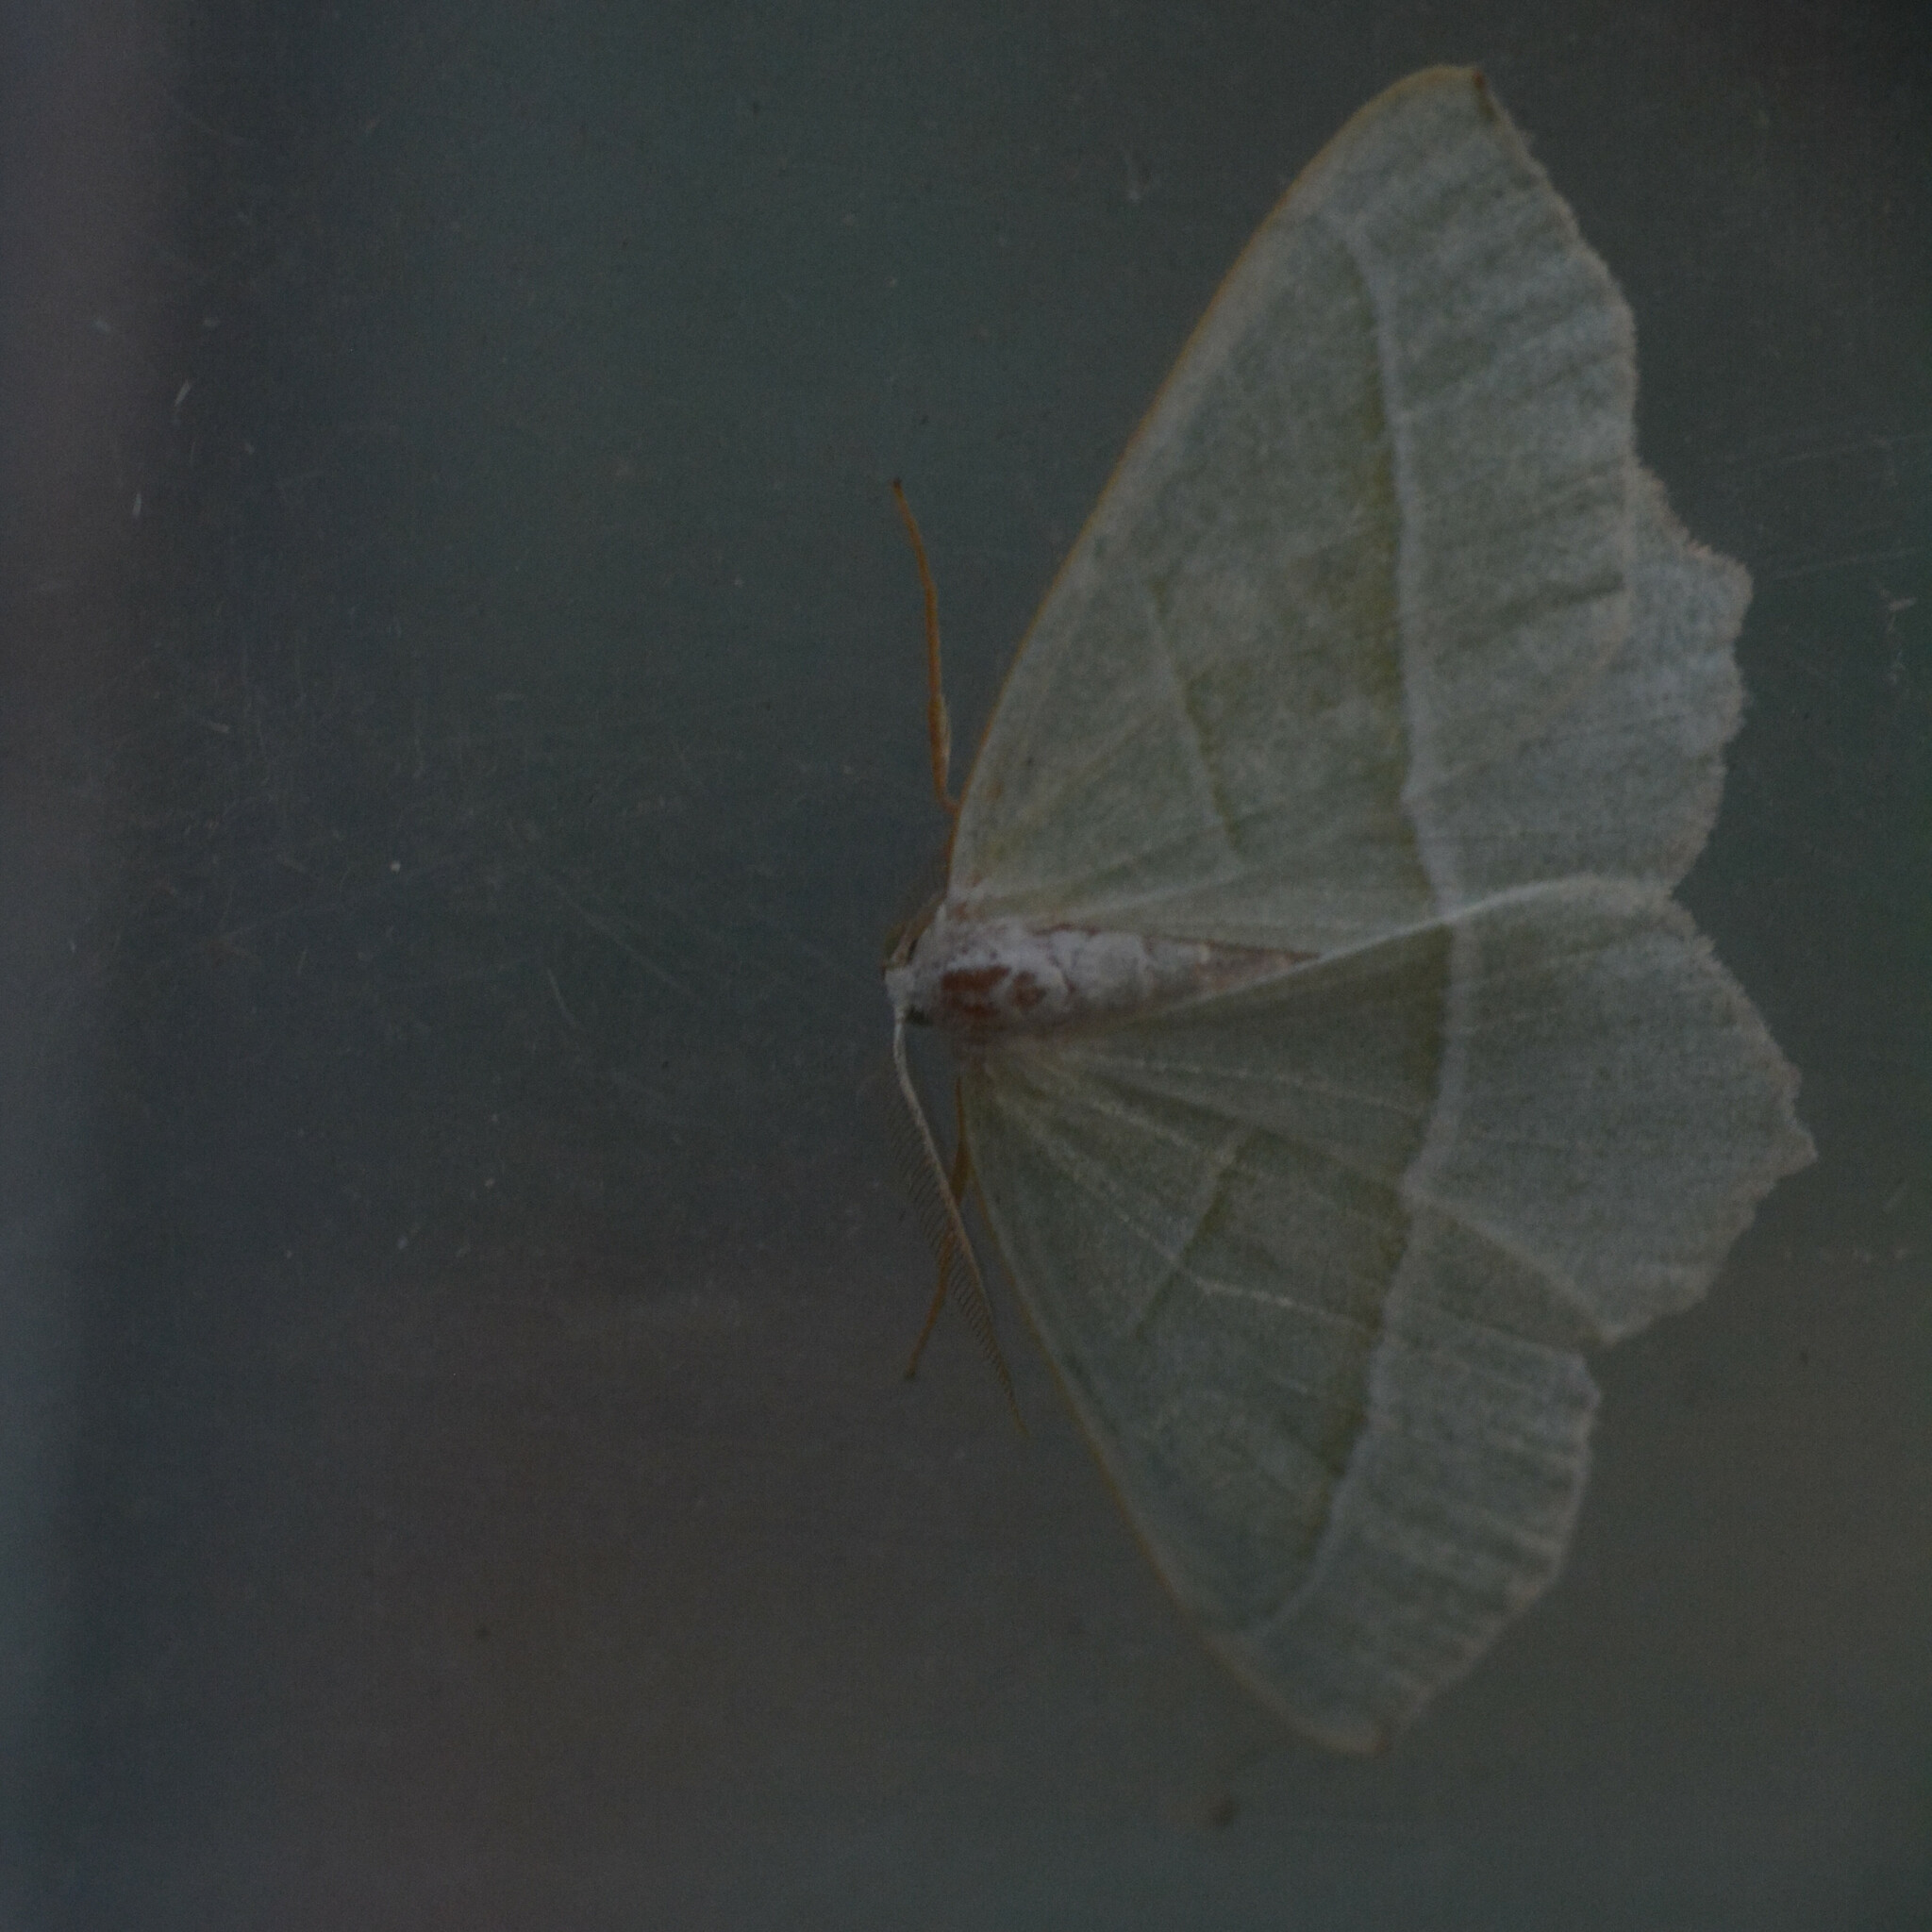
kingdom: Animalia
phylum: Arthropoda
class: Insecta
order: Lepidoptera
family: Geometridae
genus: Campaea
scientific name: Campaea margaritaria
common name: Light emerald
